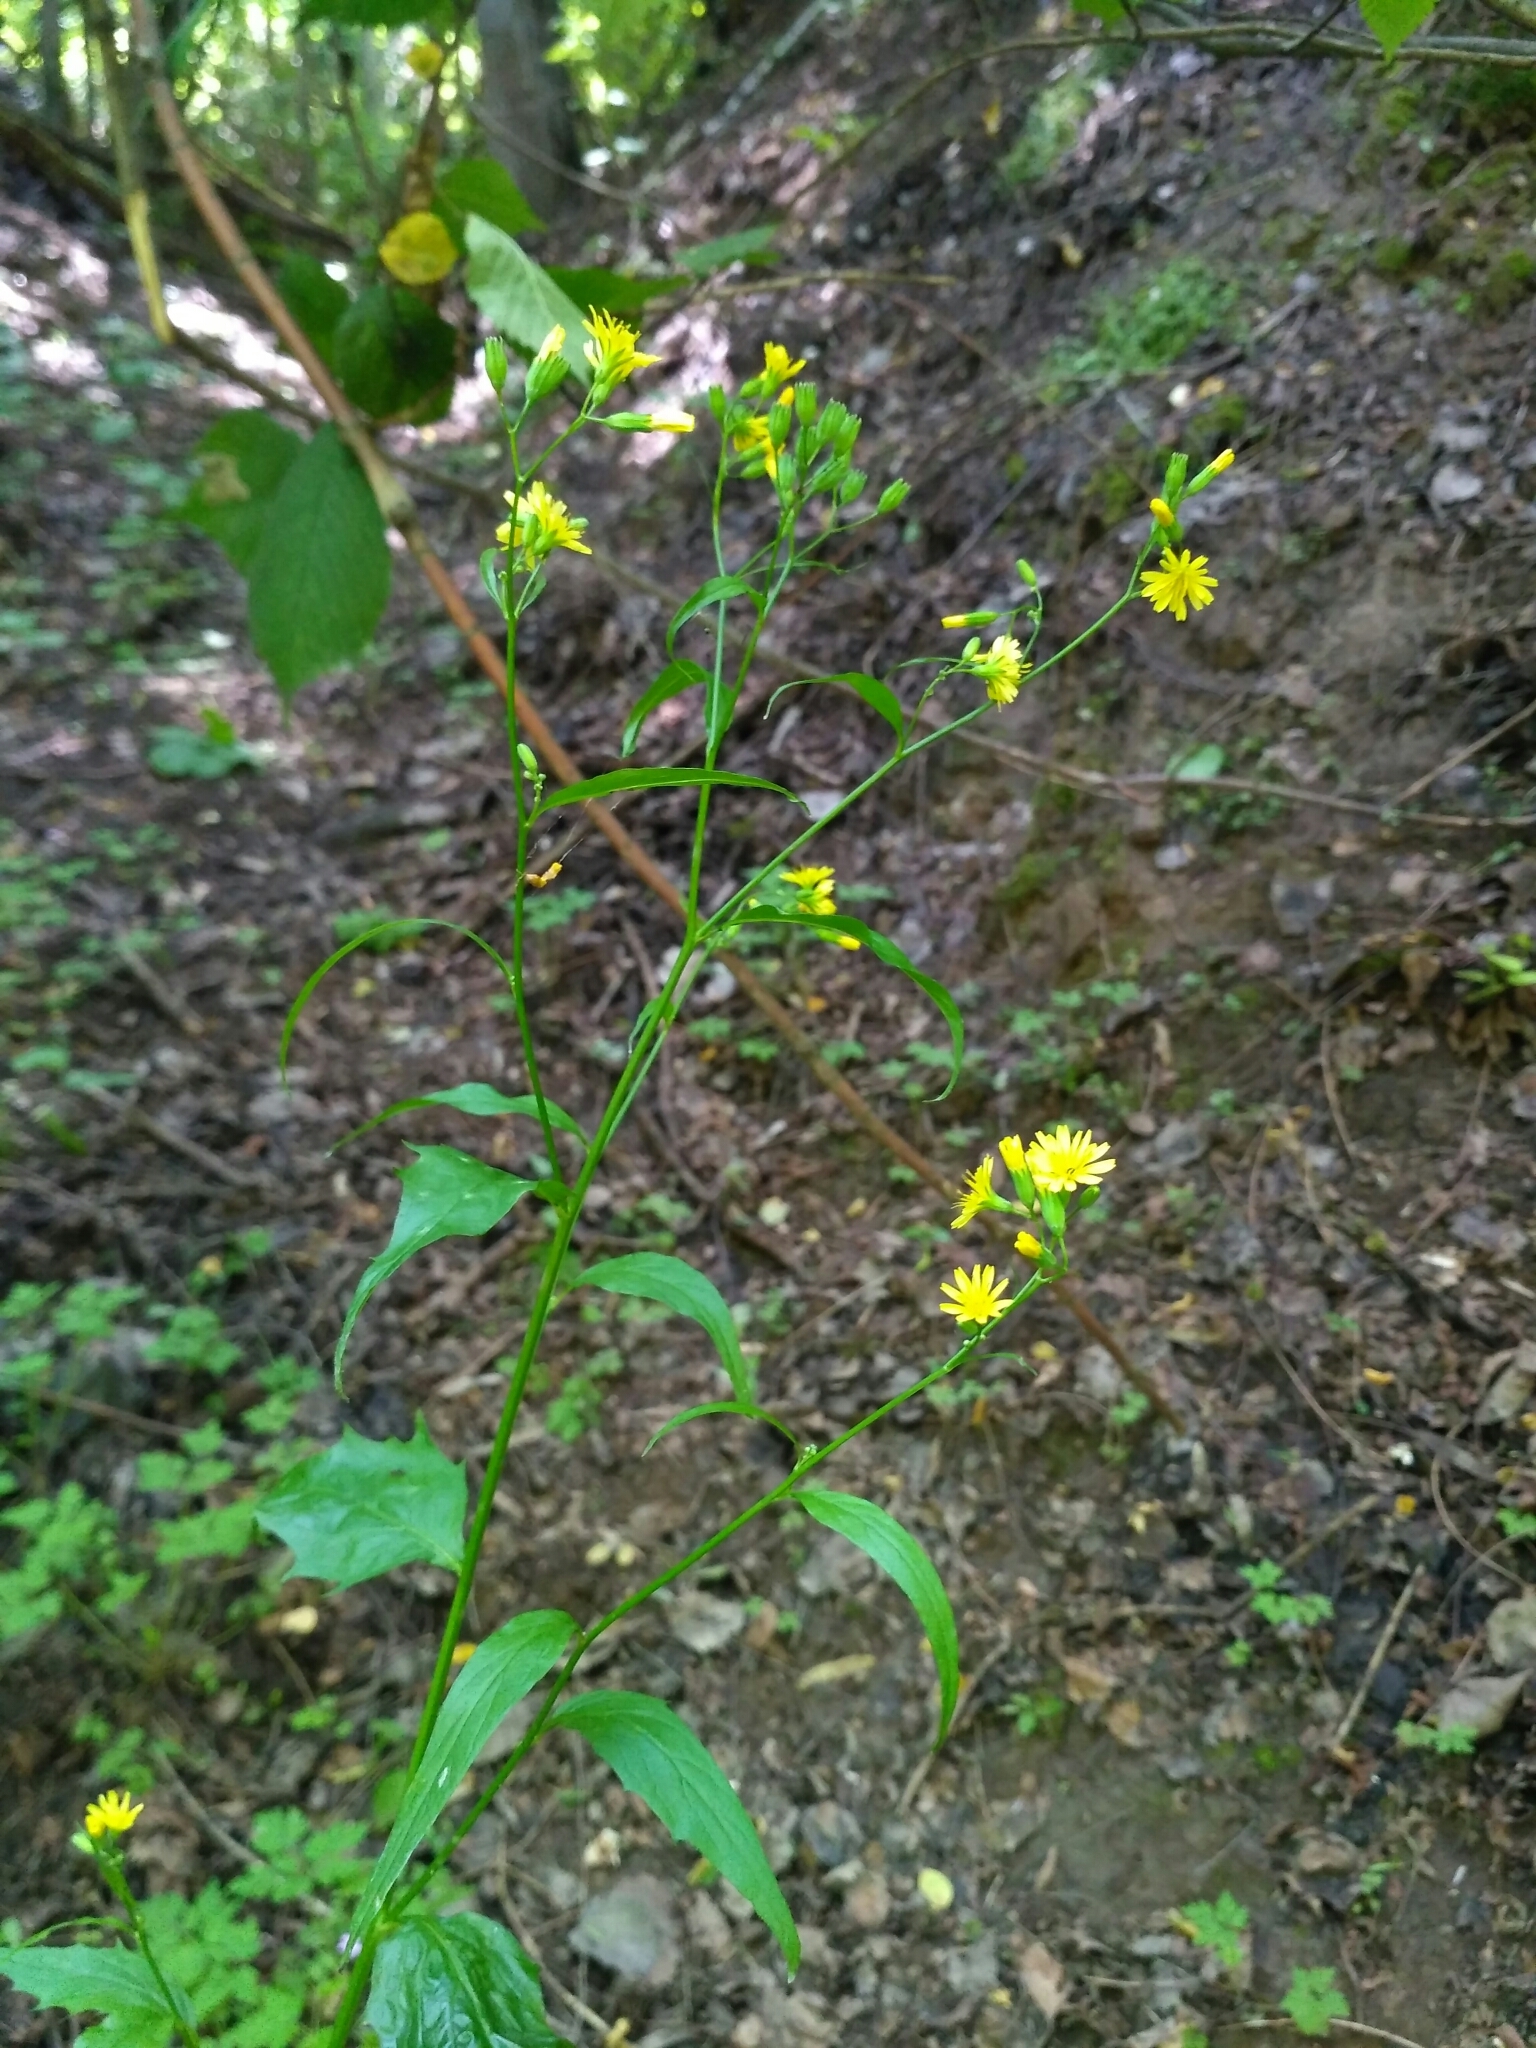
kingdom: Plantae
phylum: Tracheophyta
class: Magnoliopsida
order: Asterales
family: Asteraceae
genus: Lapsana
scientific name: Lapsana communis
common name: Nipplewort
